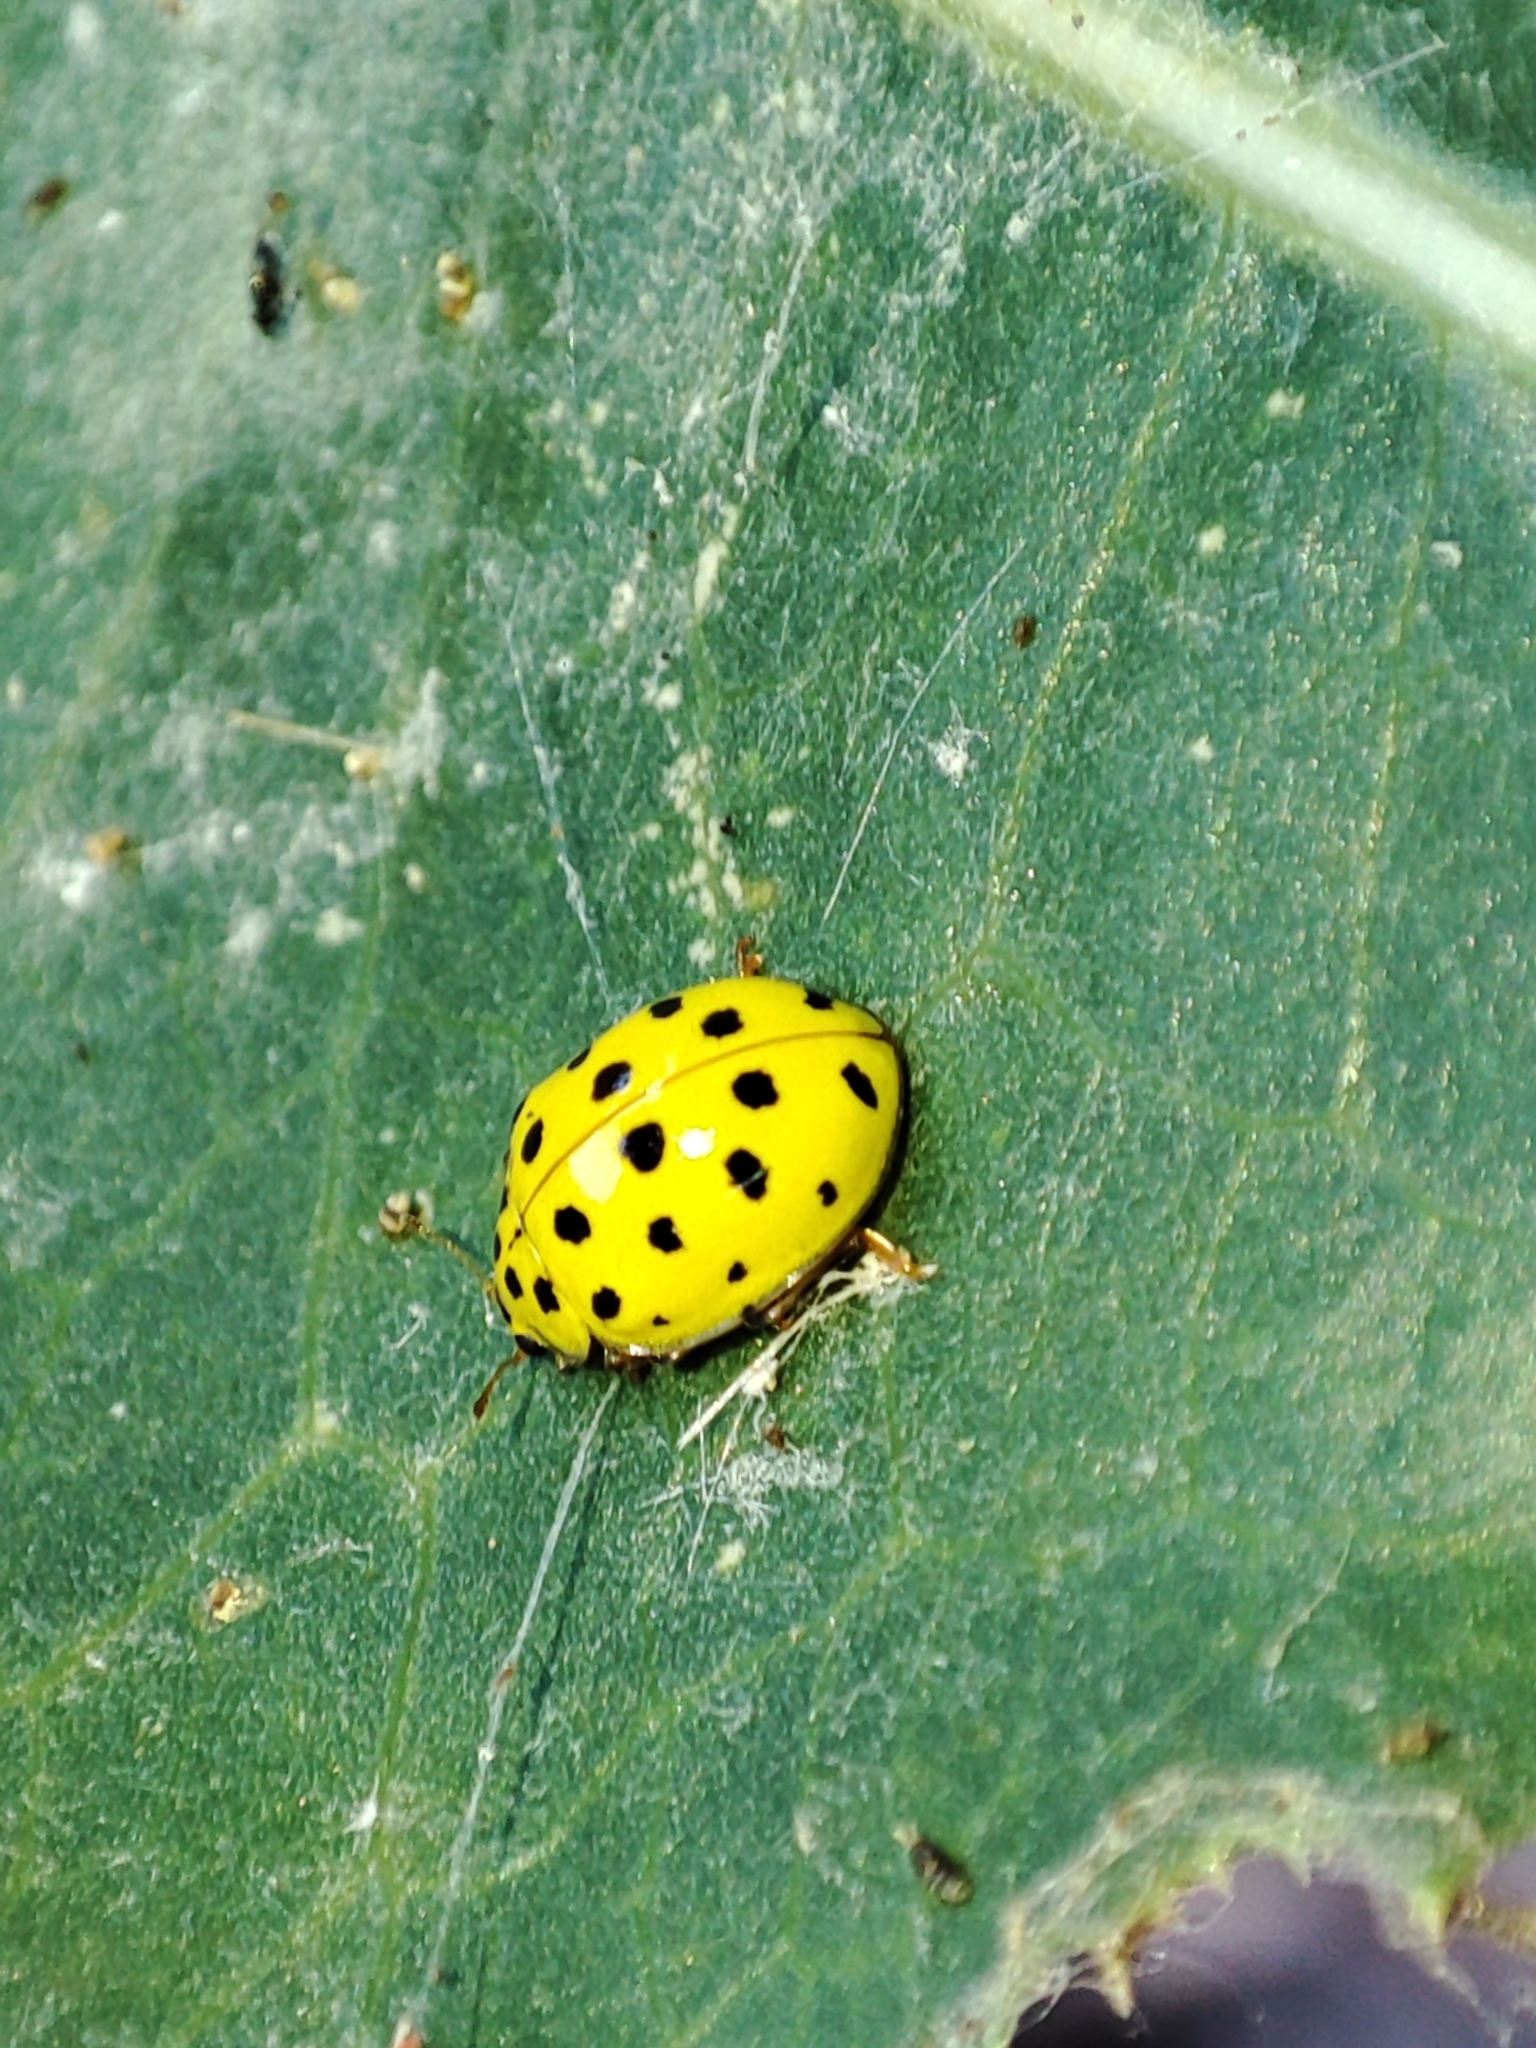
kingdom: Animalia
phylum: Arthropoda
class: Insecta
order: Coleoptera
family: Coccinellidae
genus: Psyllobora
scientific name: Psyllobora vigintiduopunctata
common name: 22-spot ladybird
